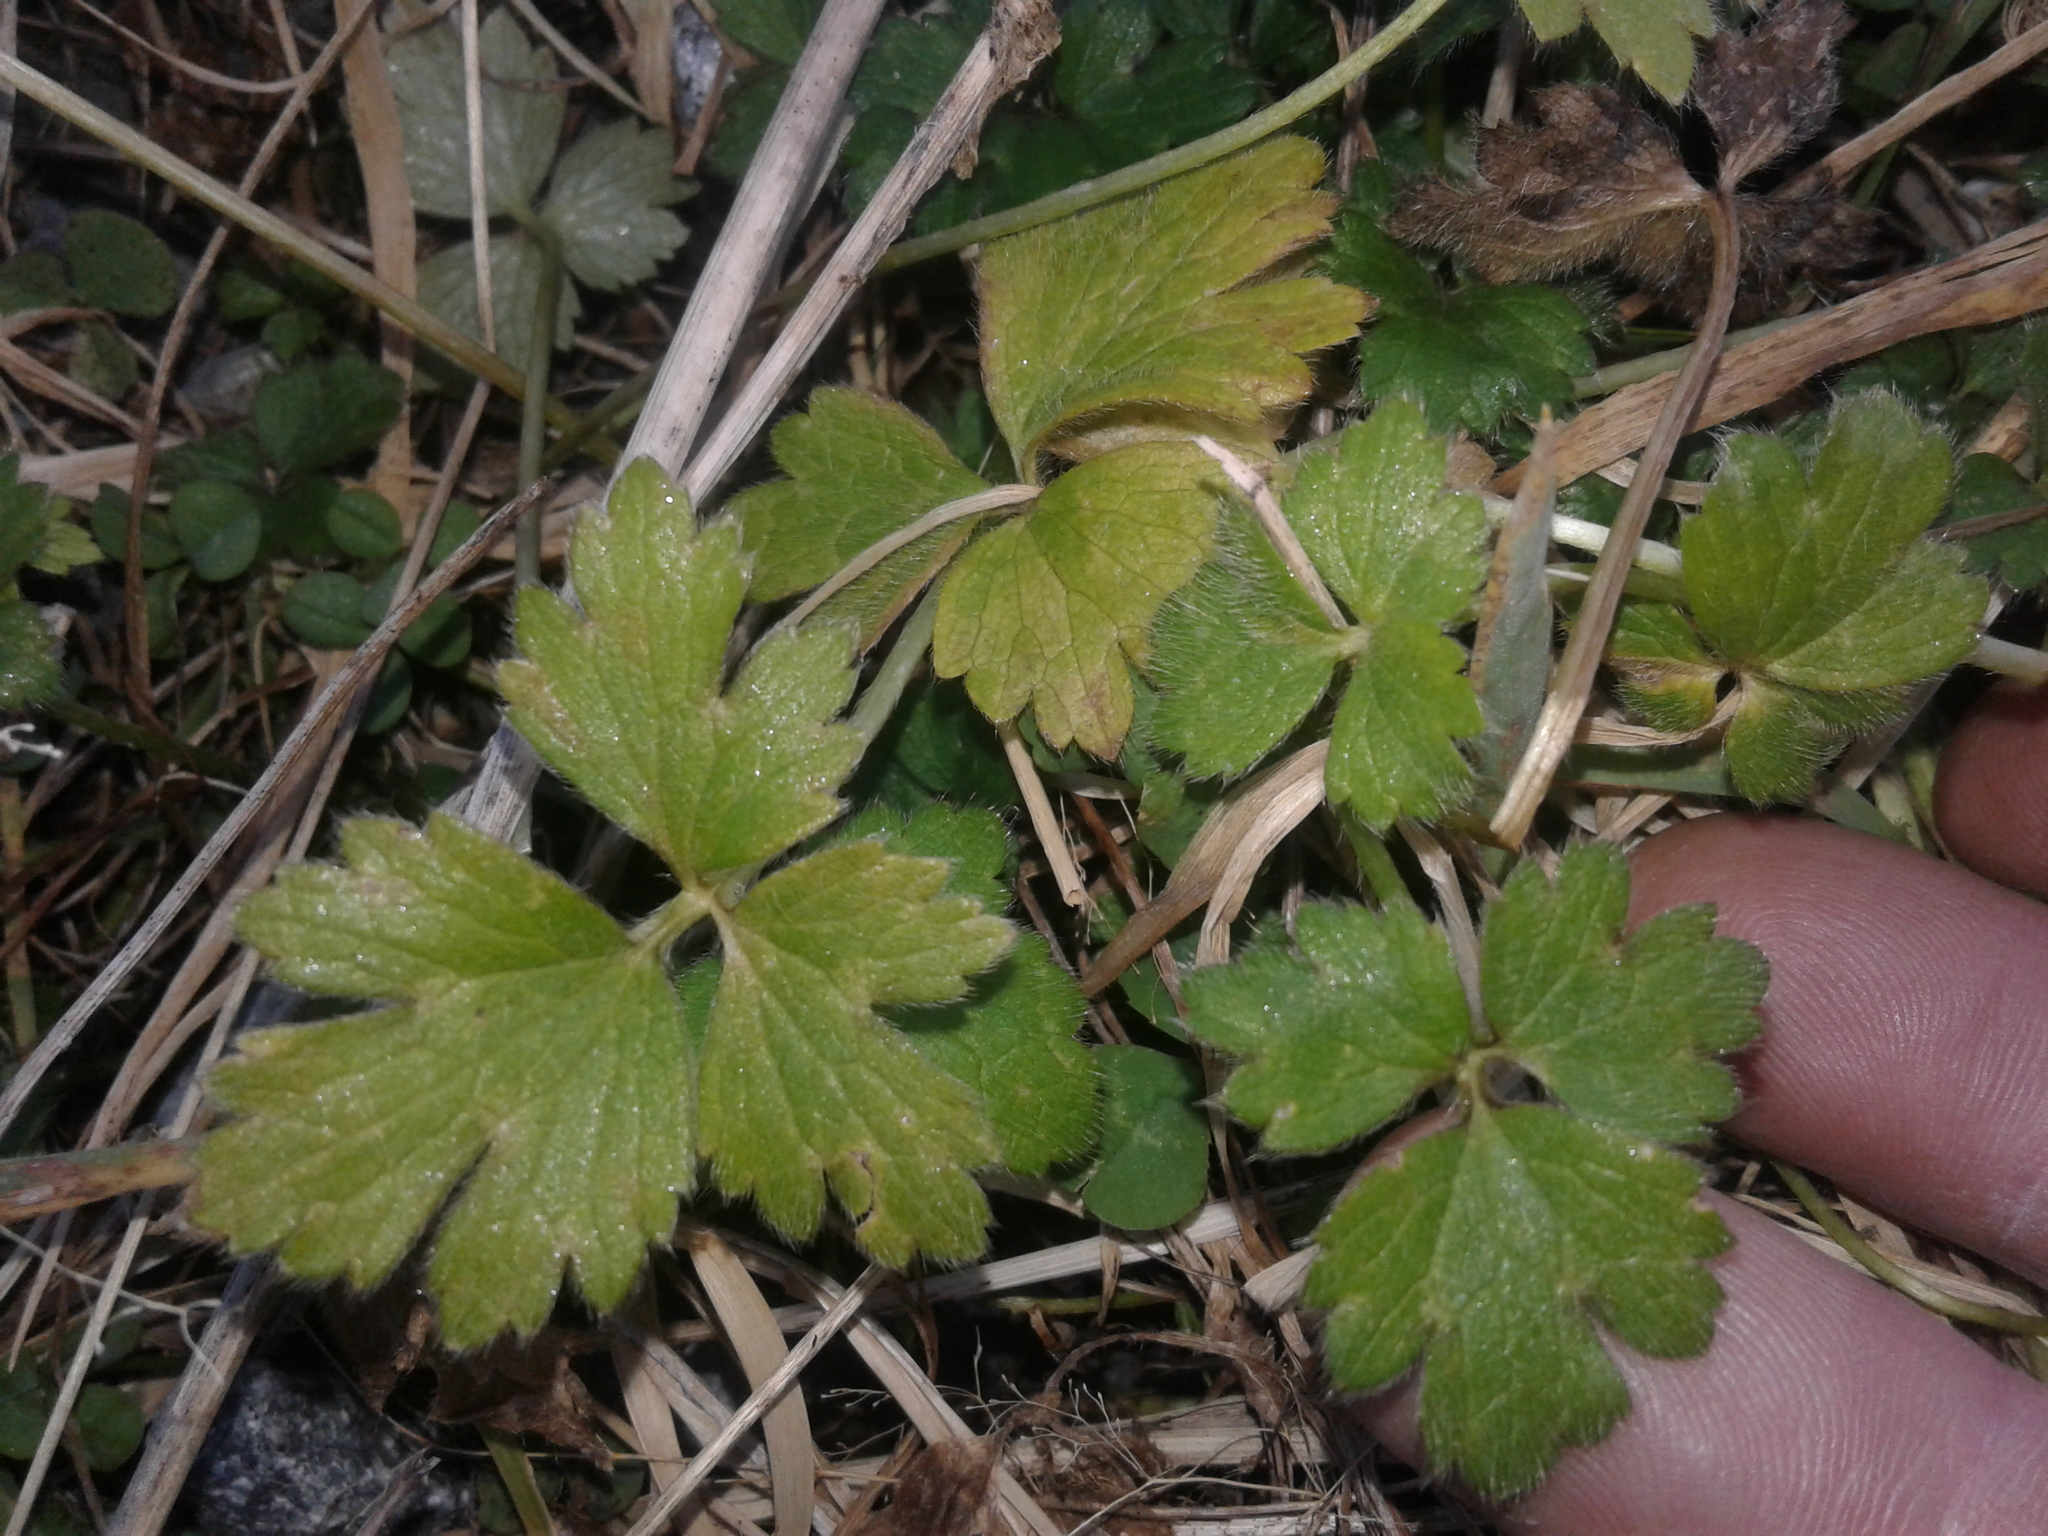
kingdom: Plantae
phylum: Tracheophyta
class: Magnoliopsida
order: Ranunculales
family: Ranunculaceae
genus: Ranunculus
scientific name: Ranunculus repens
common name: Creeping buttercup
